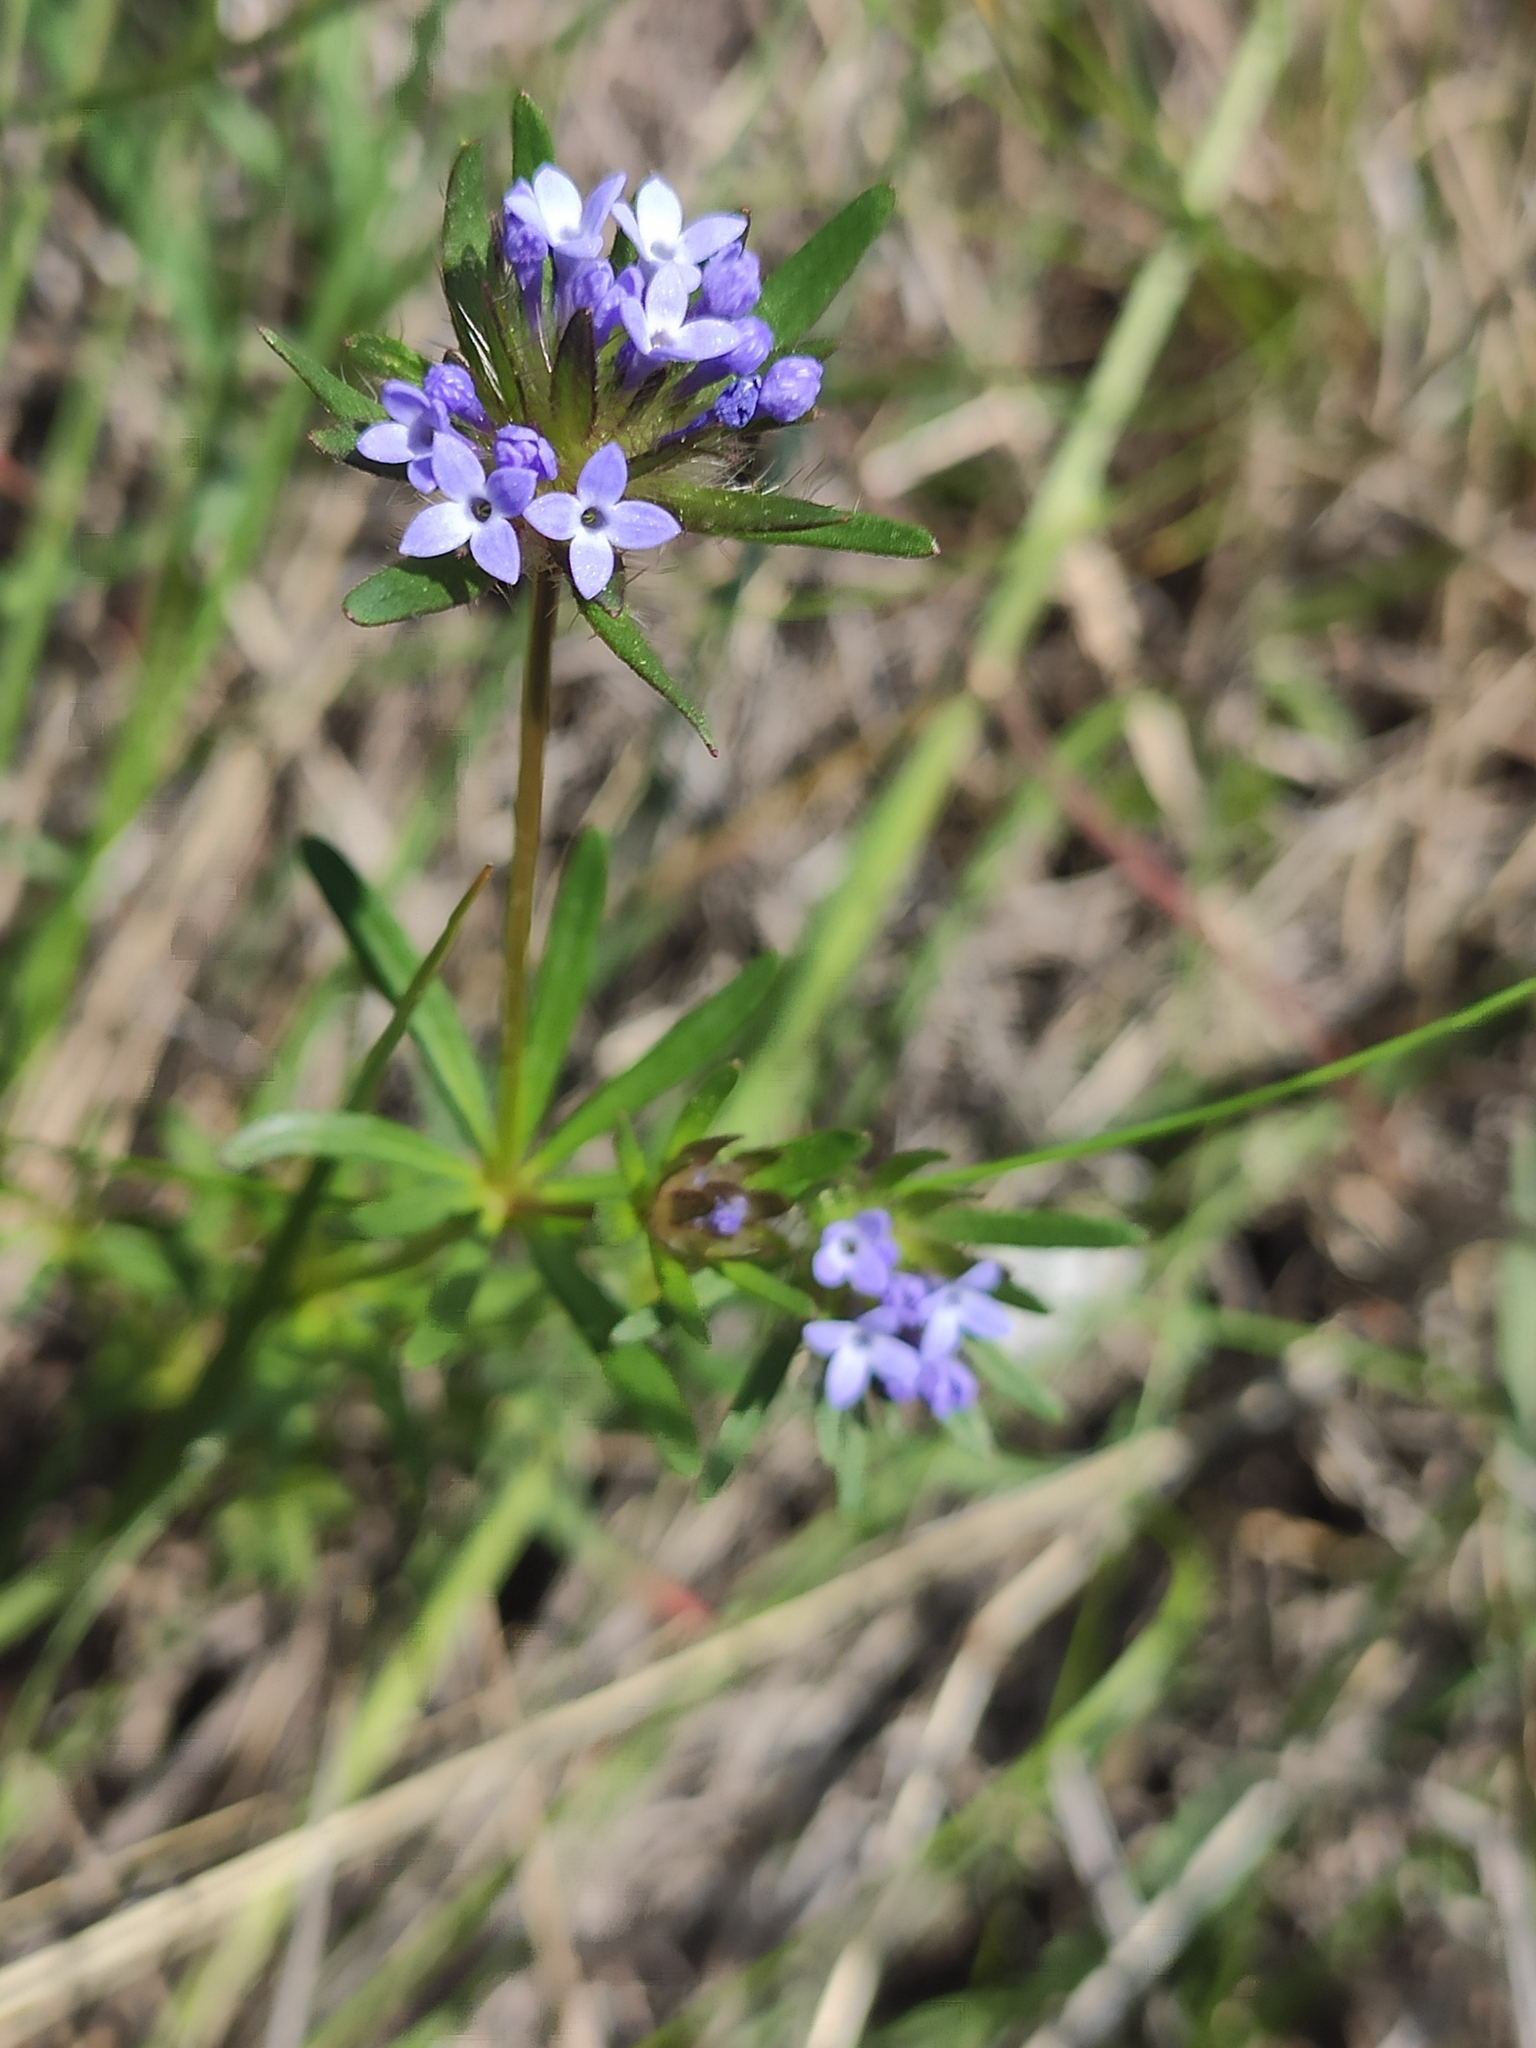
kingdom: Plantae
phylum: Tracheophyta
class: Magnoliopsida
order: Gentianales
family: Rubiaceae
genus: Sherardia
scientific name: Sherardia arvensis
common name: Field madder
